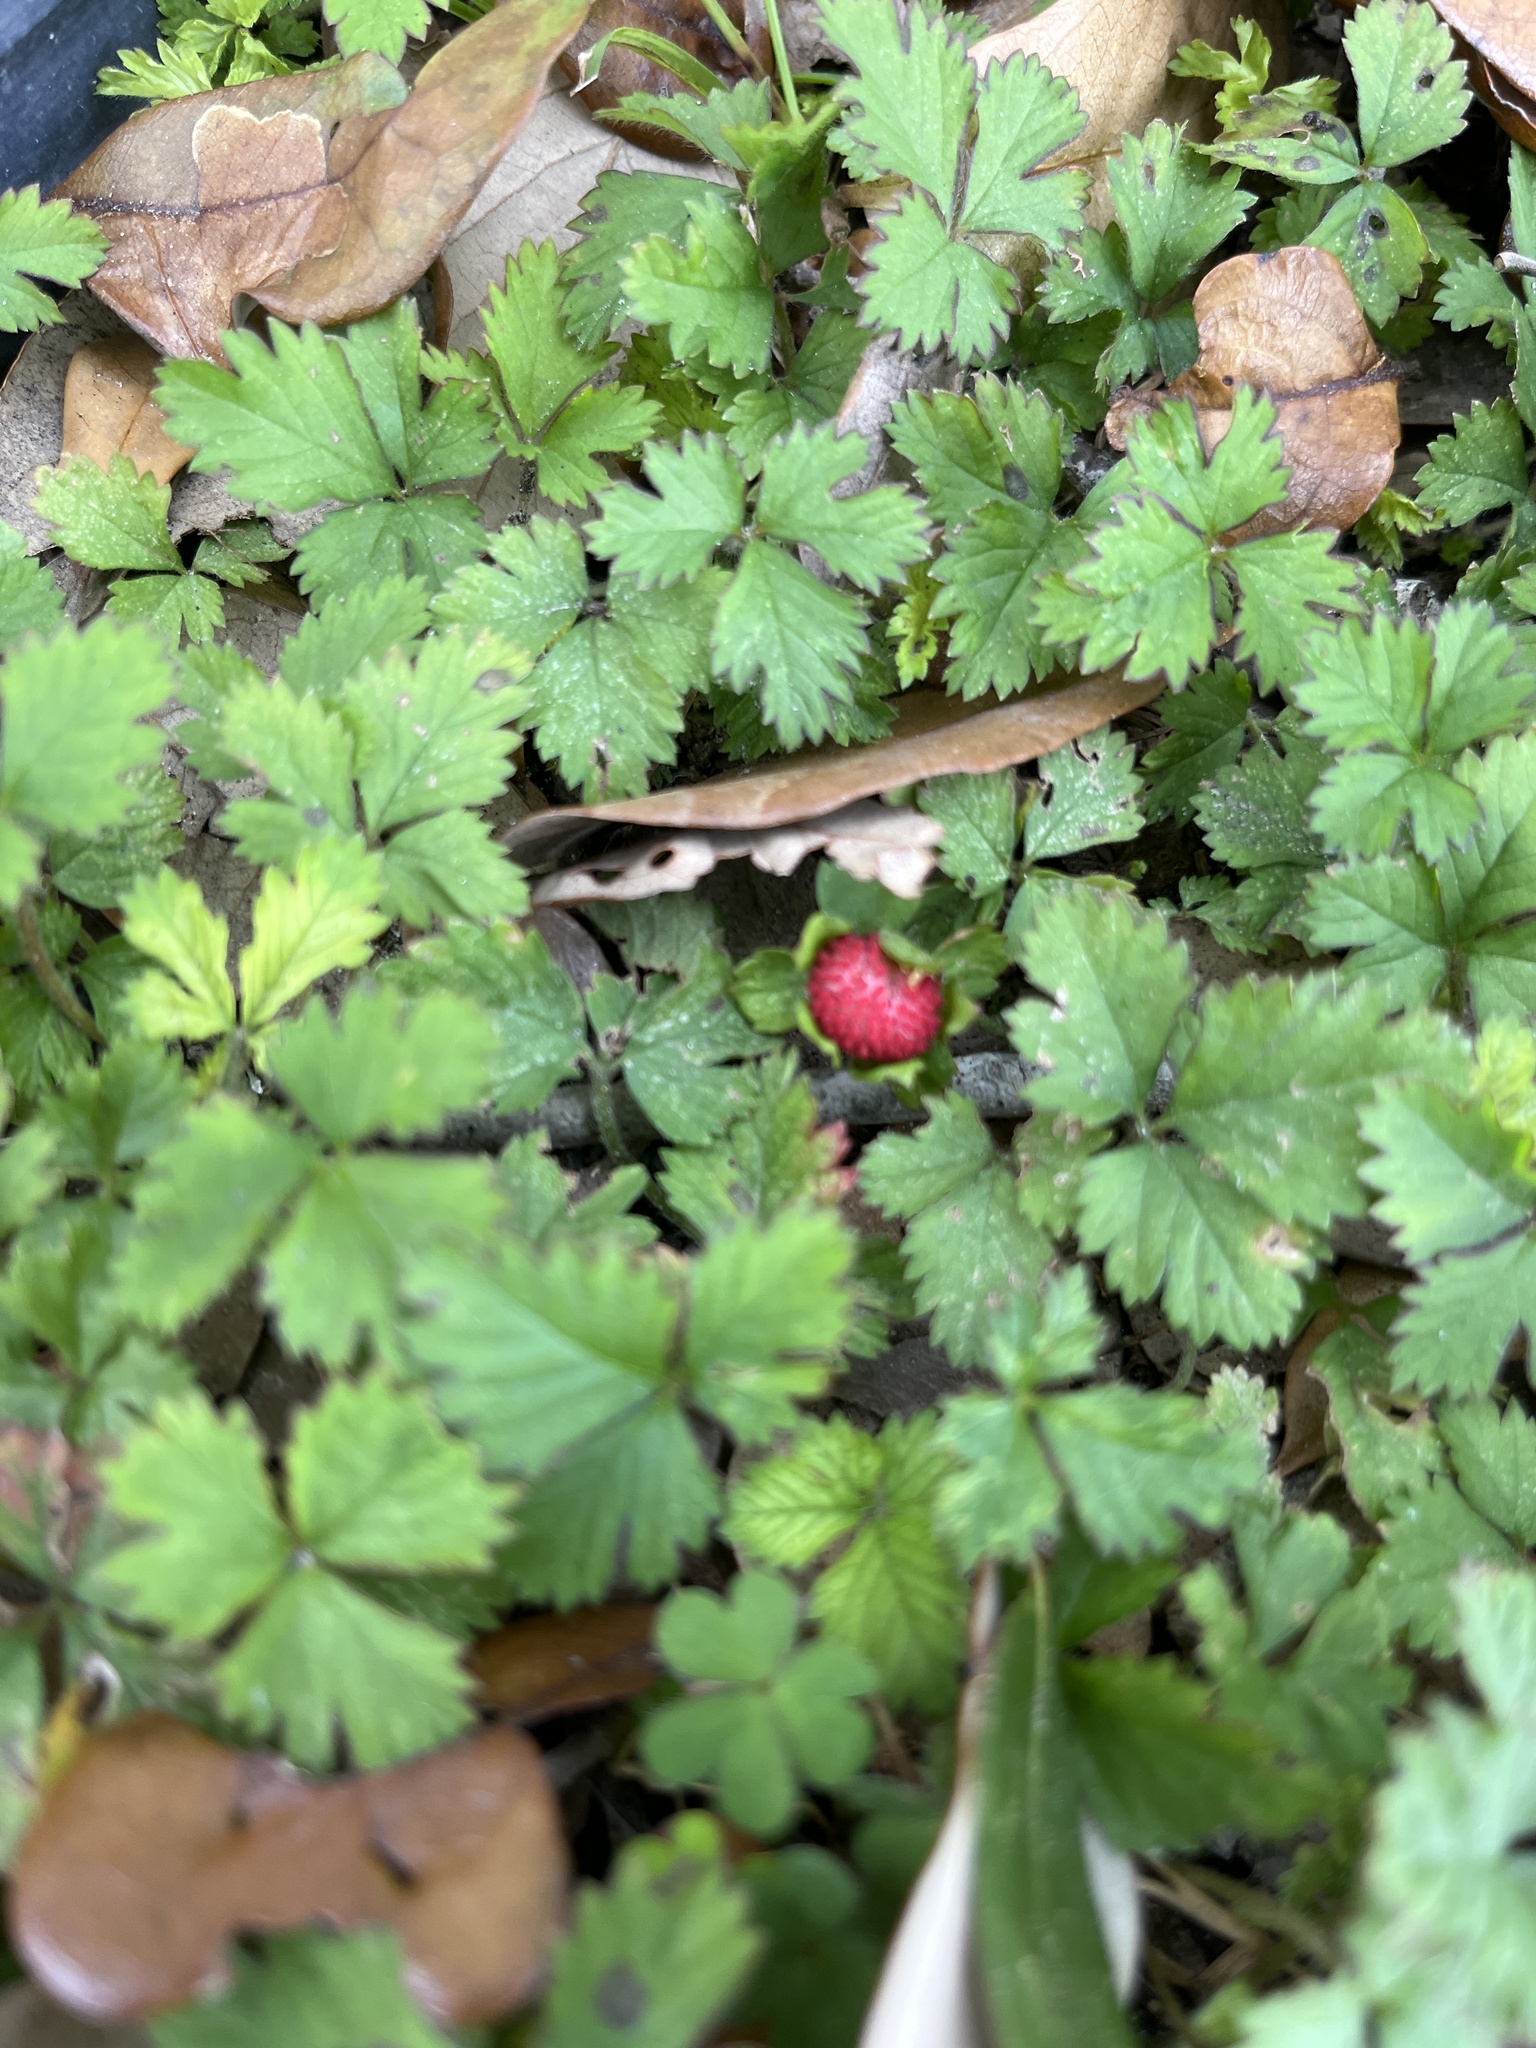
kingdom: Plantae
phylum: Tracheophyta
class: Magnoliopsida
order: Rosales
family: Rosaceae
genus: Potentilla
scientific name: Potentilla indica
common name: Yellow-flowered strawberry
